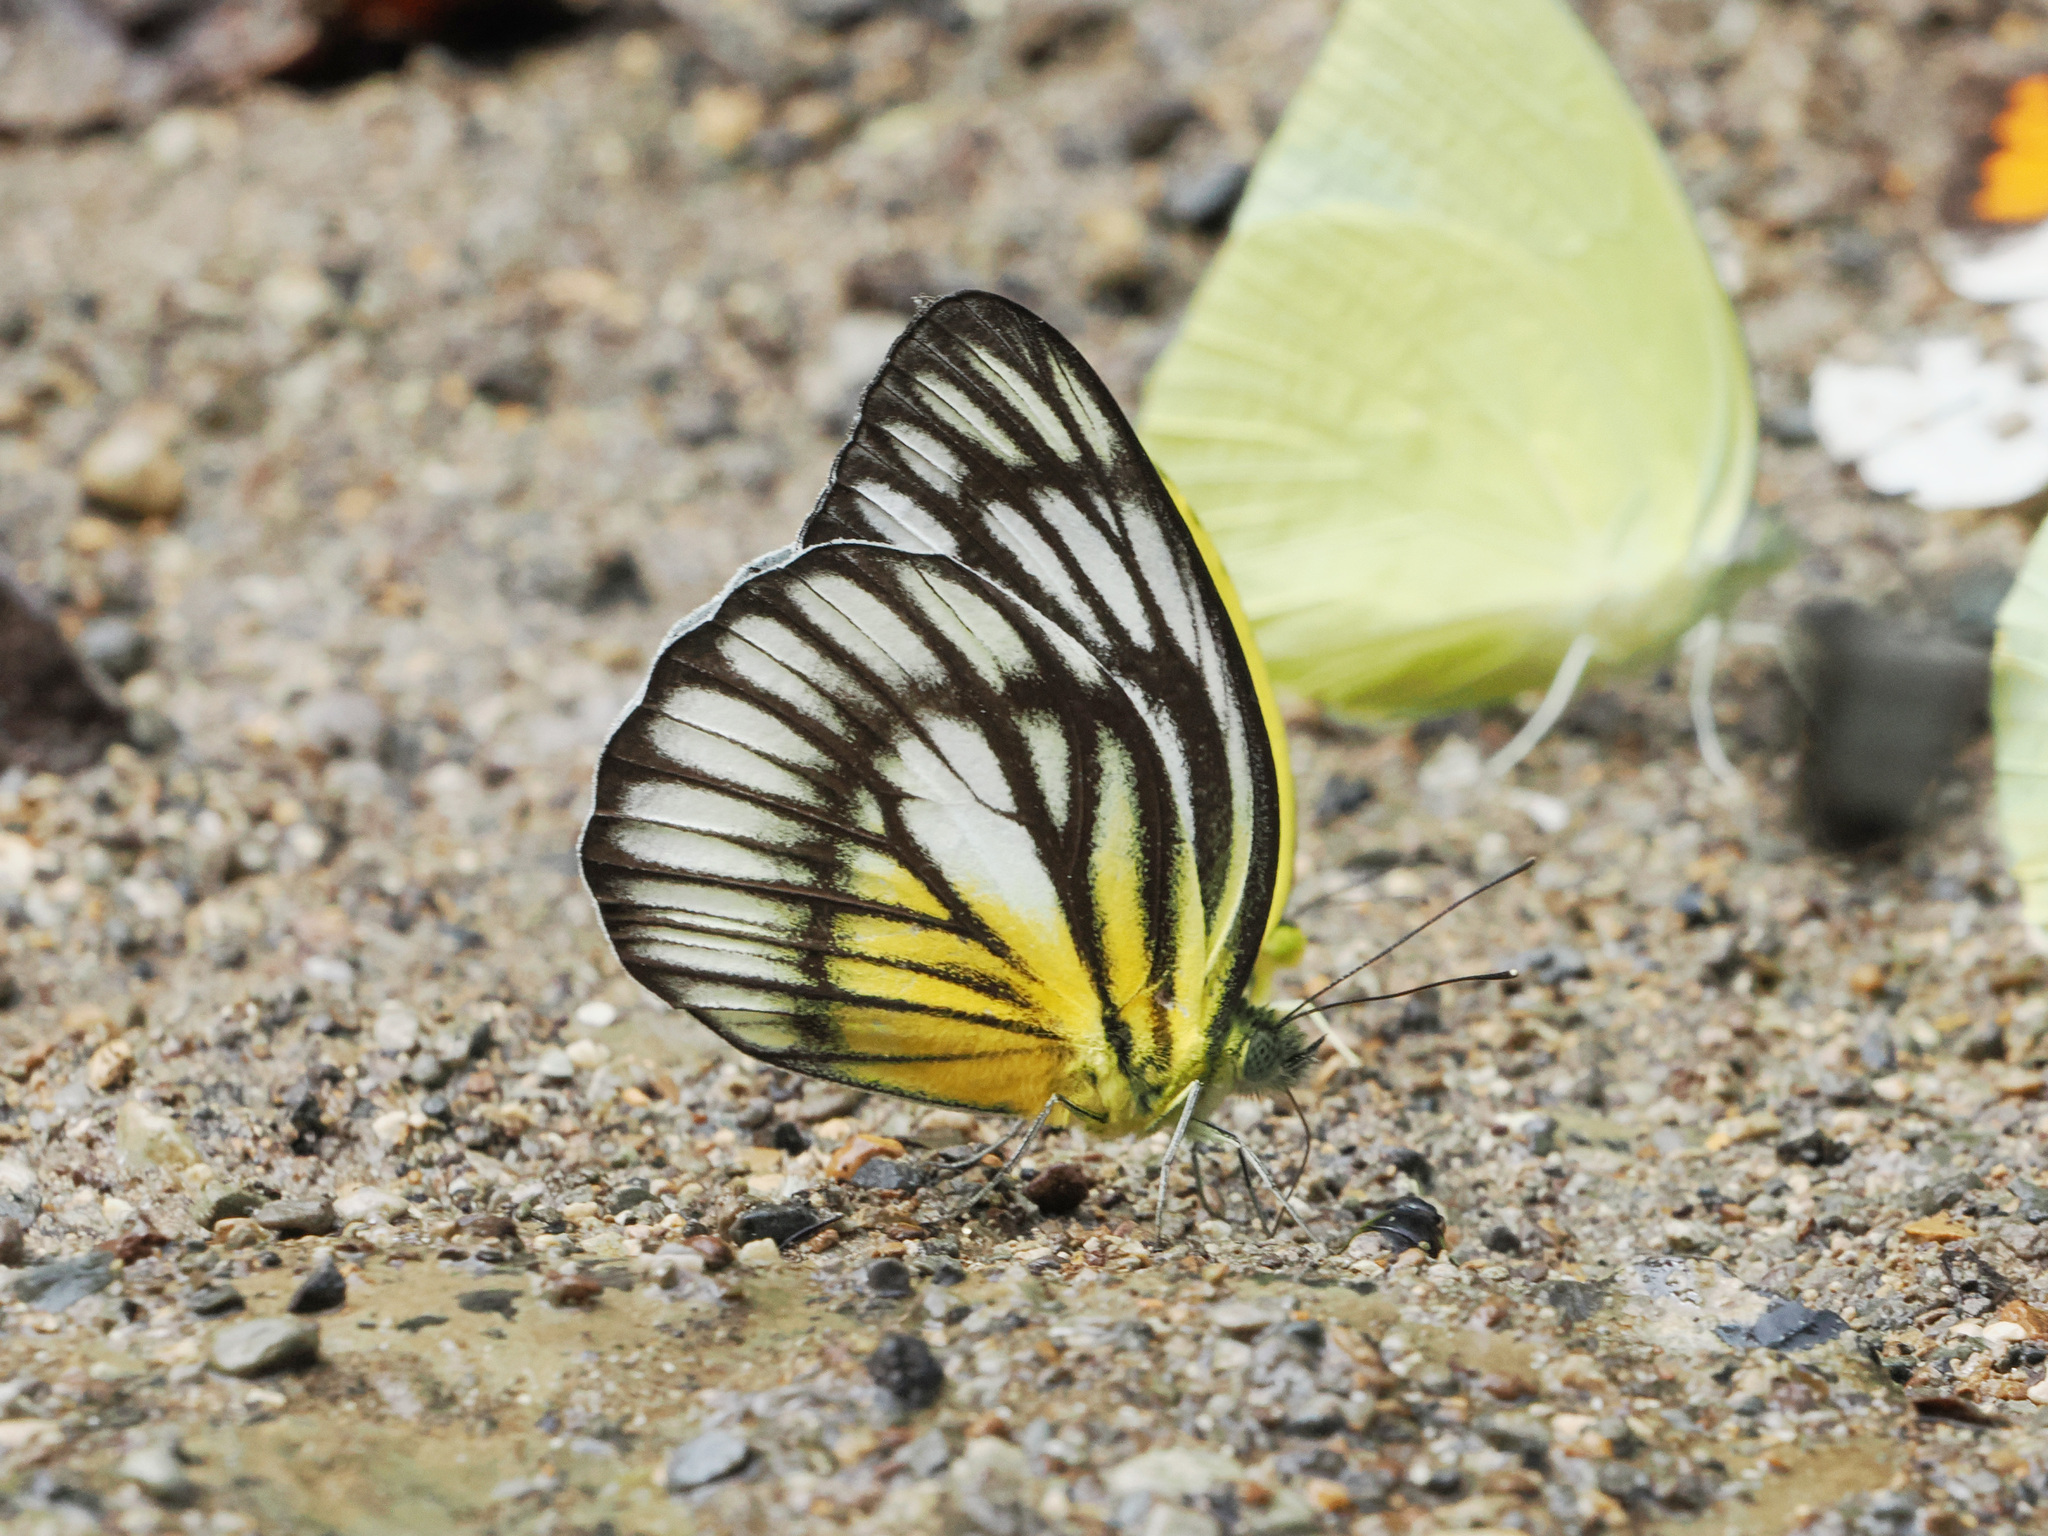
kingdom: Animalia
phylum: Arthropoda
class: Insecta
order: Lepidoptera
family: Pieridae
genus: Cepora
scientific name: Cepora celebensis
